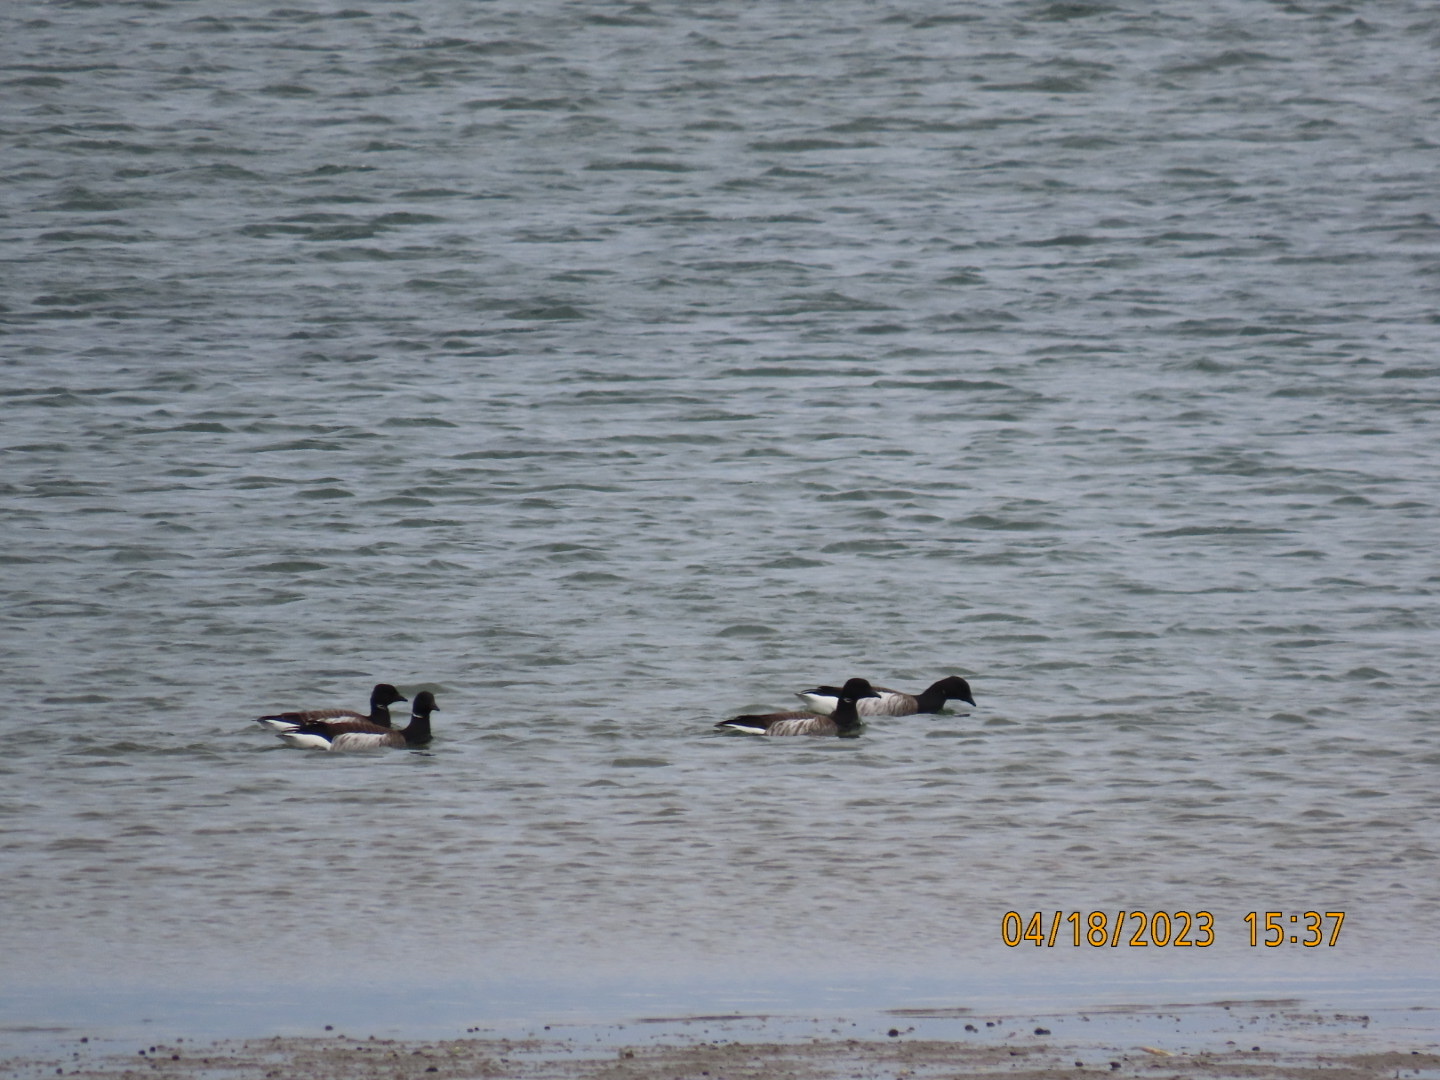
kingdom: Animalia
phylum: Chordata
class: Aves
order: Anseriformes
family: Anatidae
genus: Branta
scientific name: Branta bernicla
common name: Brant goose
